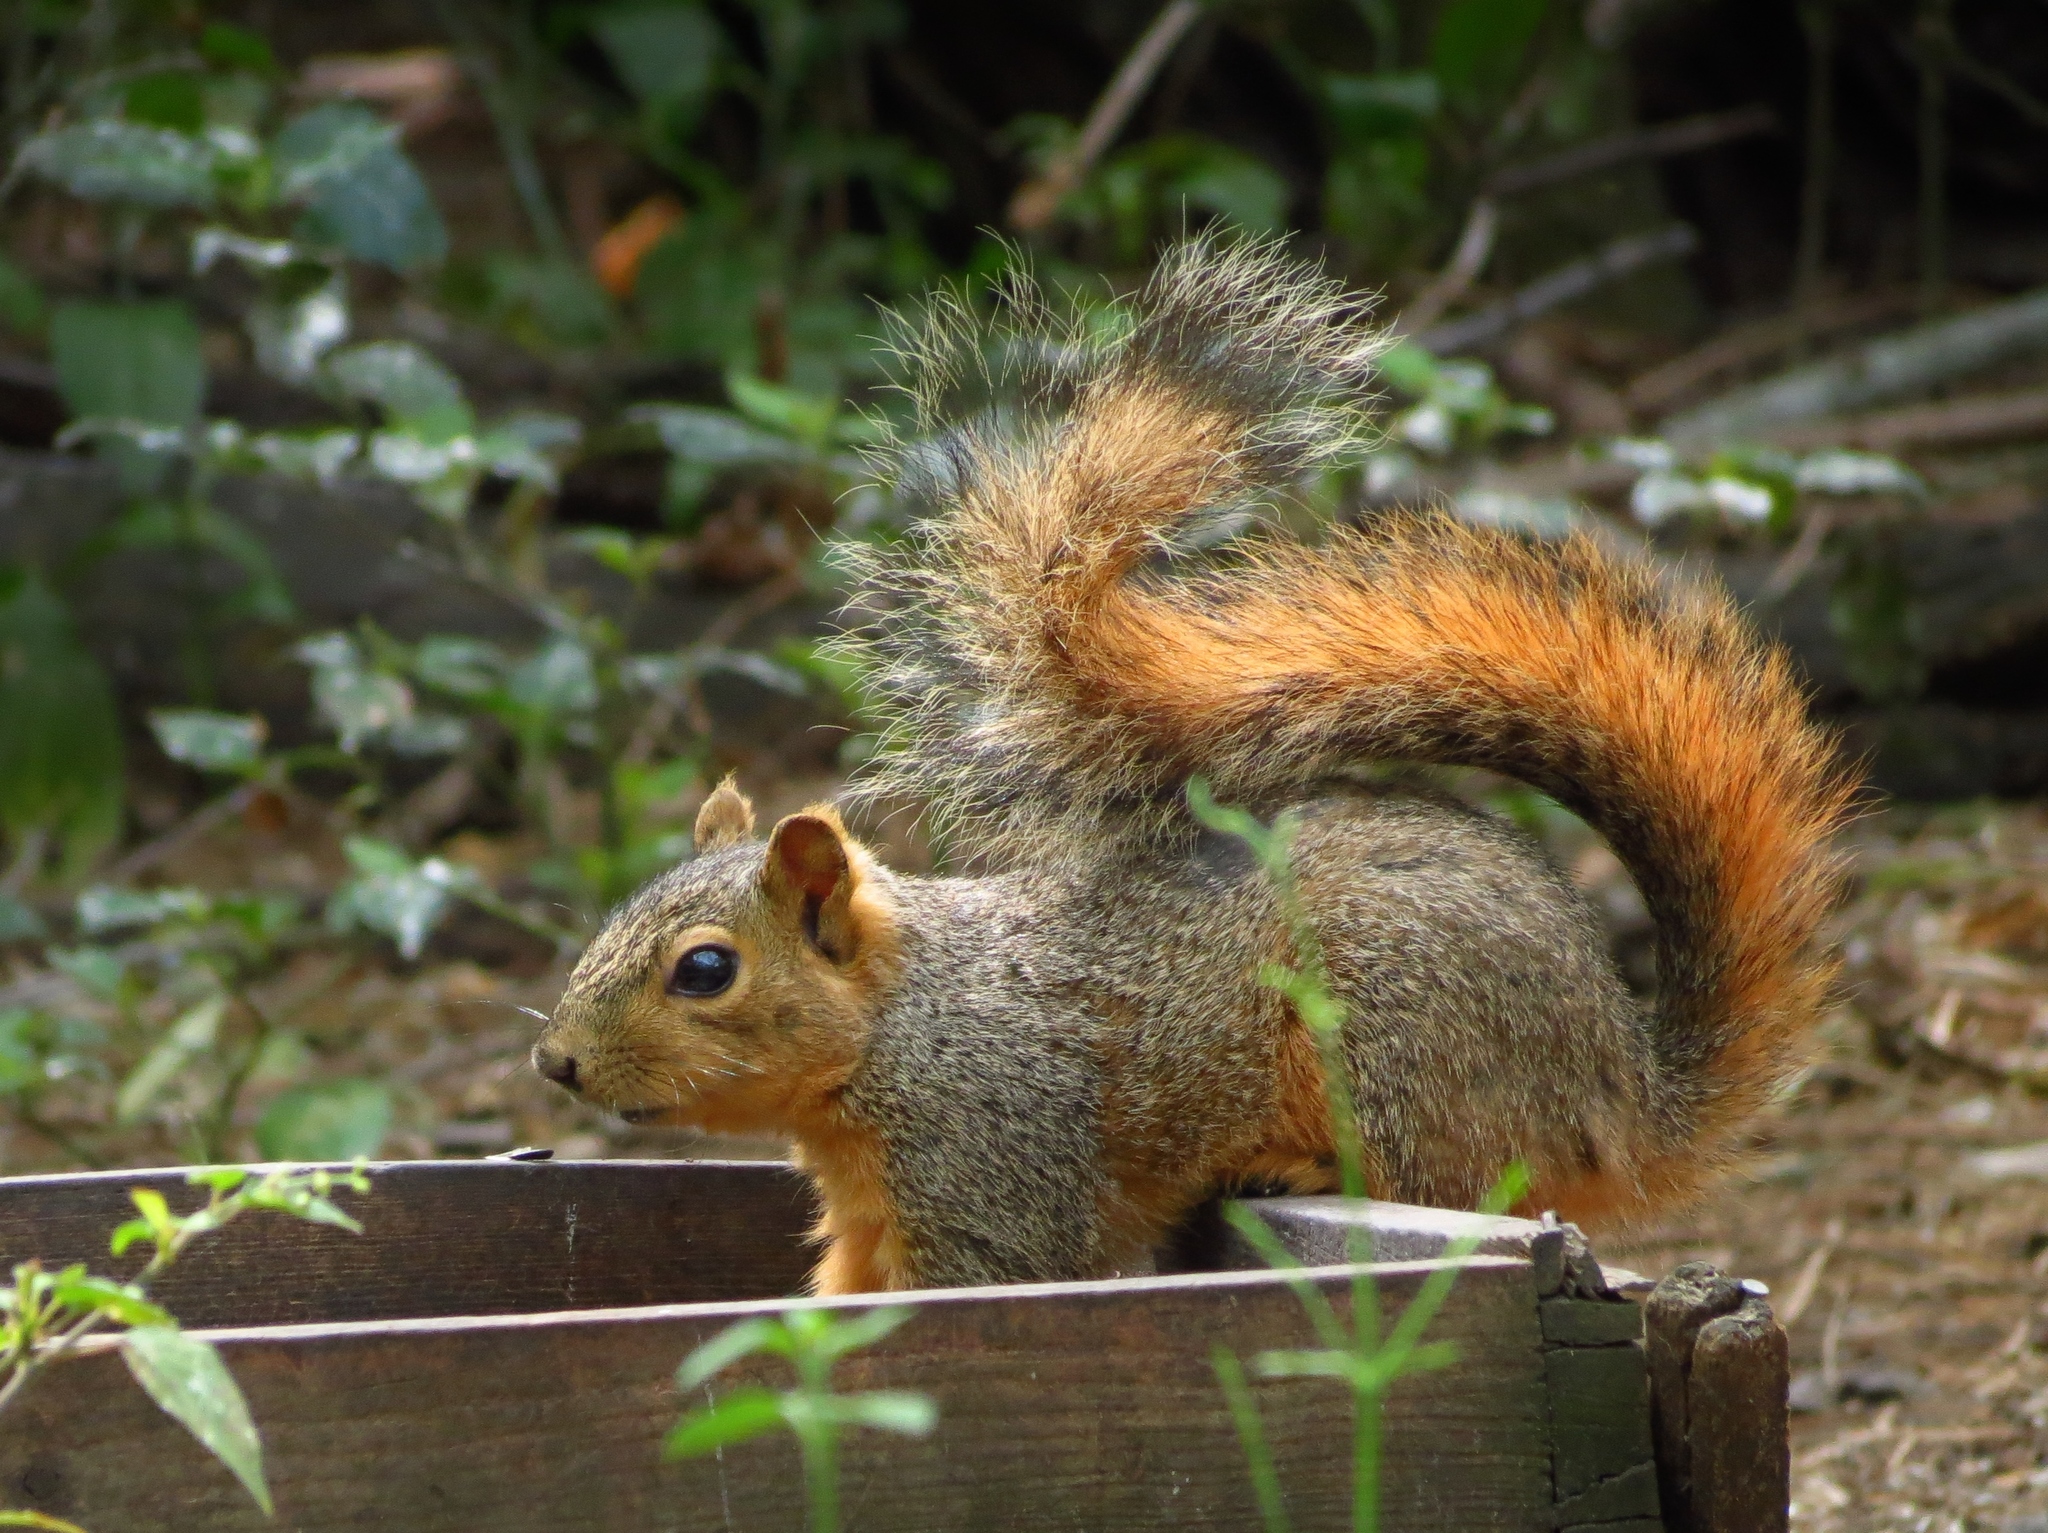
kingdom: Animalia
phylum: Chordata
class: Mammalia
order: Rodentia
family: Sciuridae
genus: Sciurus
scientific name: Sciurus niger
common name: Fox squirrel
